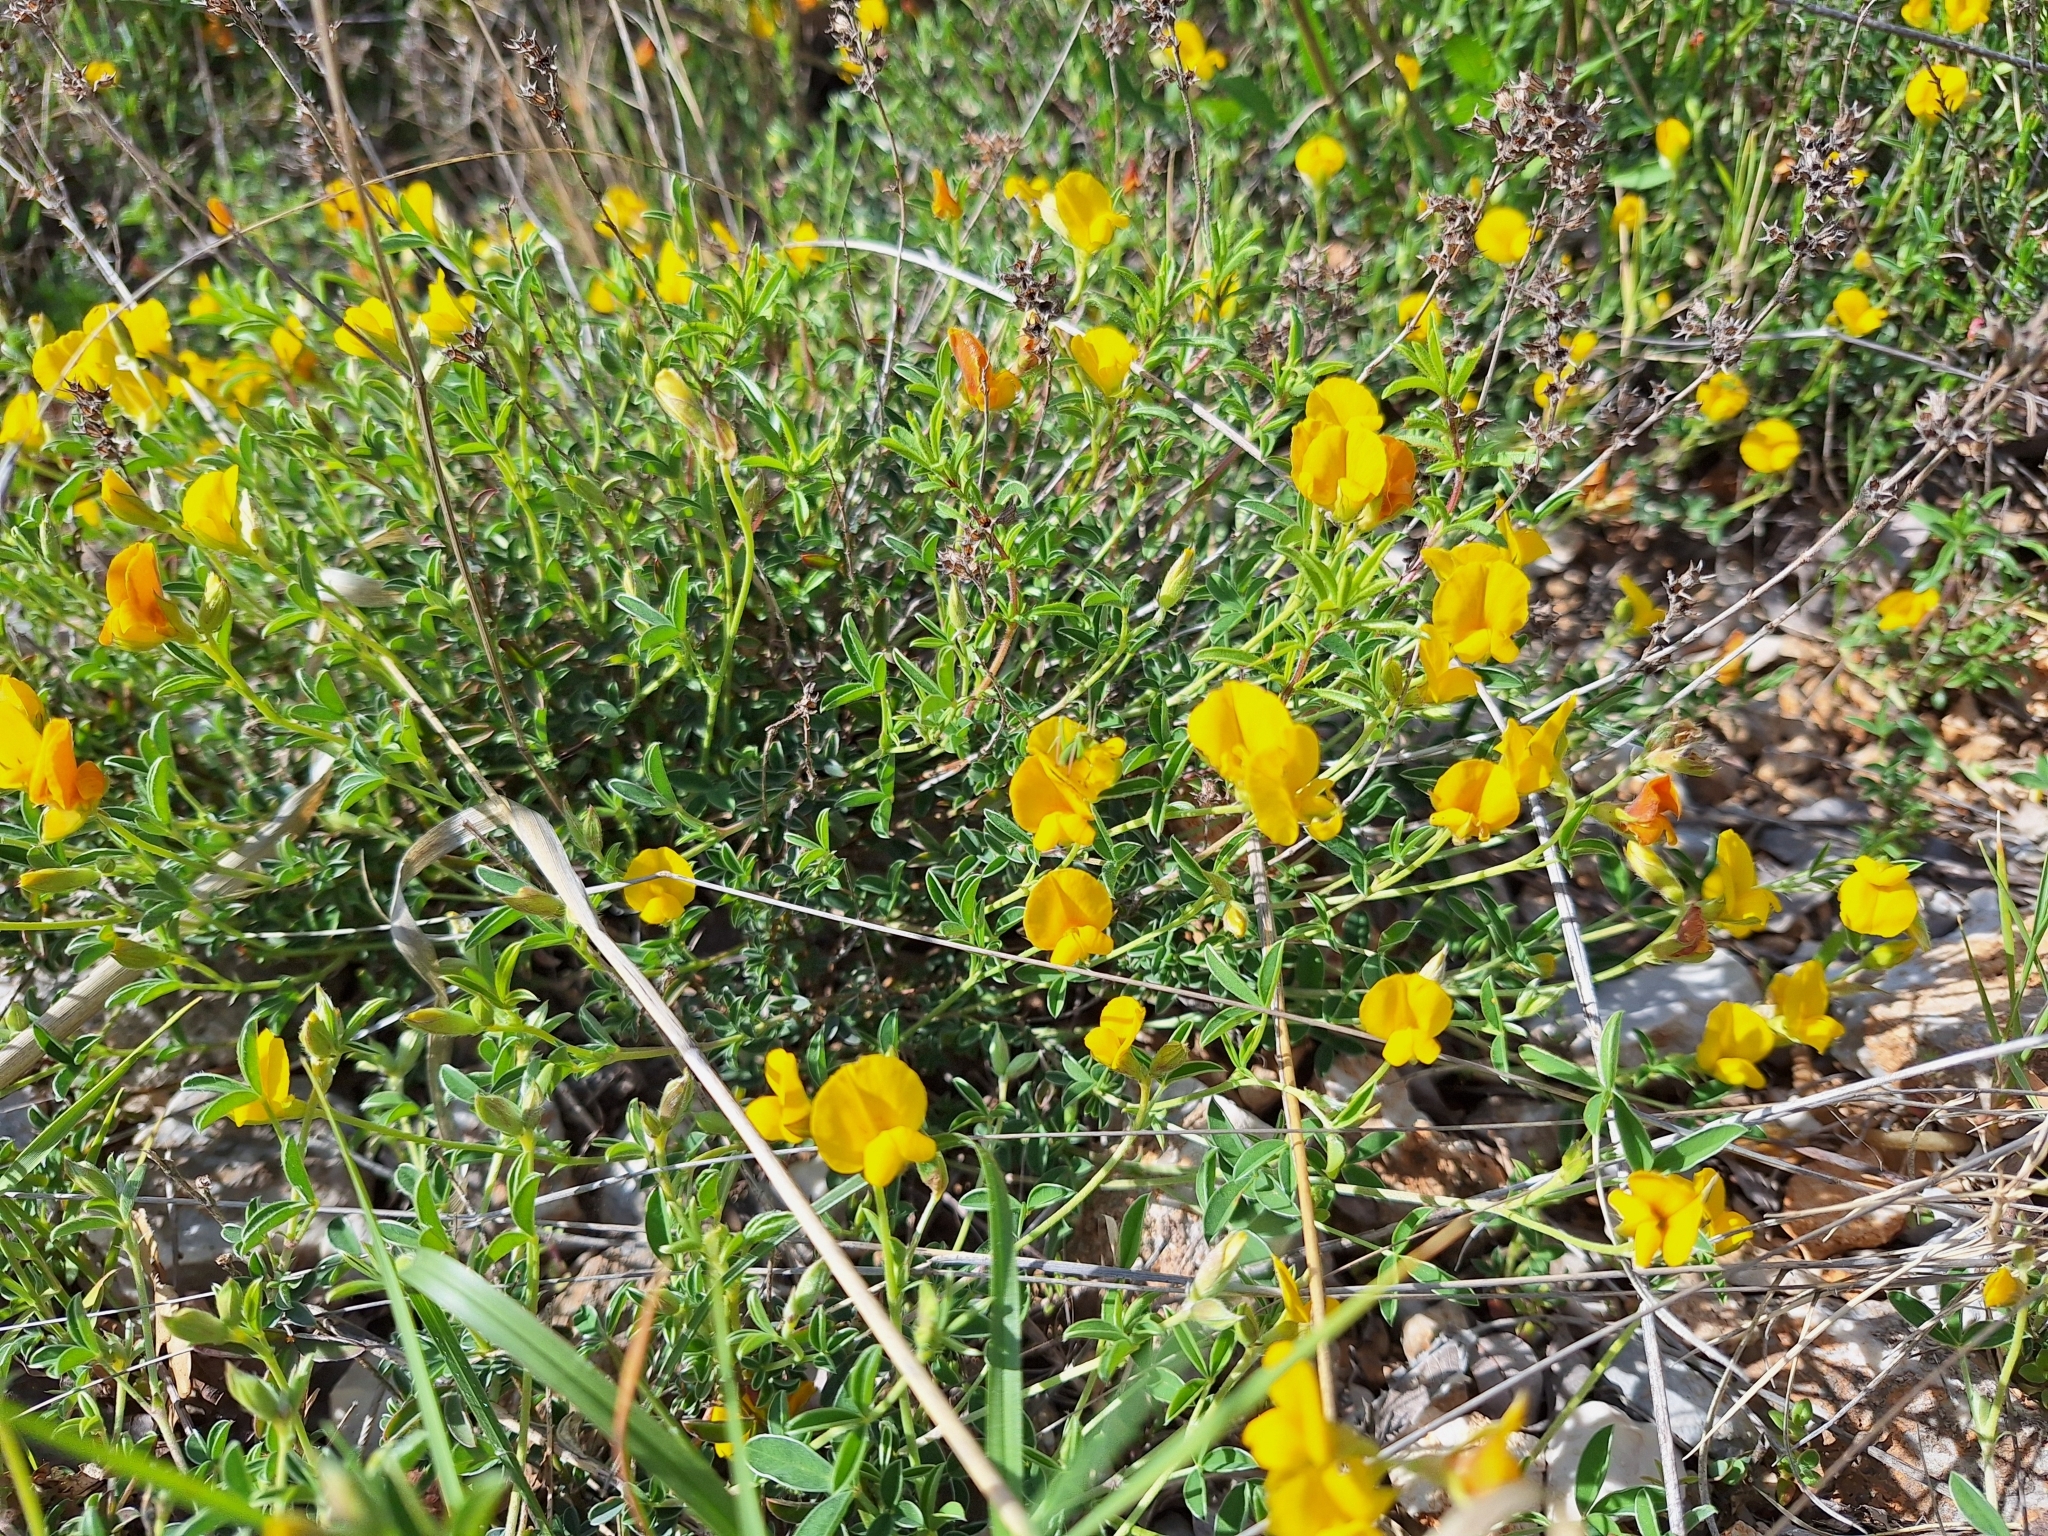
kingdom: Plantae
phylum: Tracheophyta
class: Magnoliopsida
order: Fabales
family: Fabaceae
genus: Argyrolobium
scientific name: Argyrolobium zanonii
